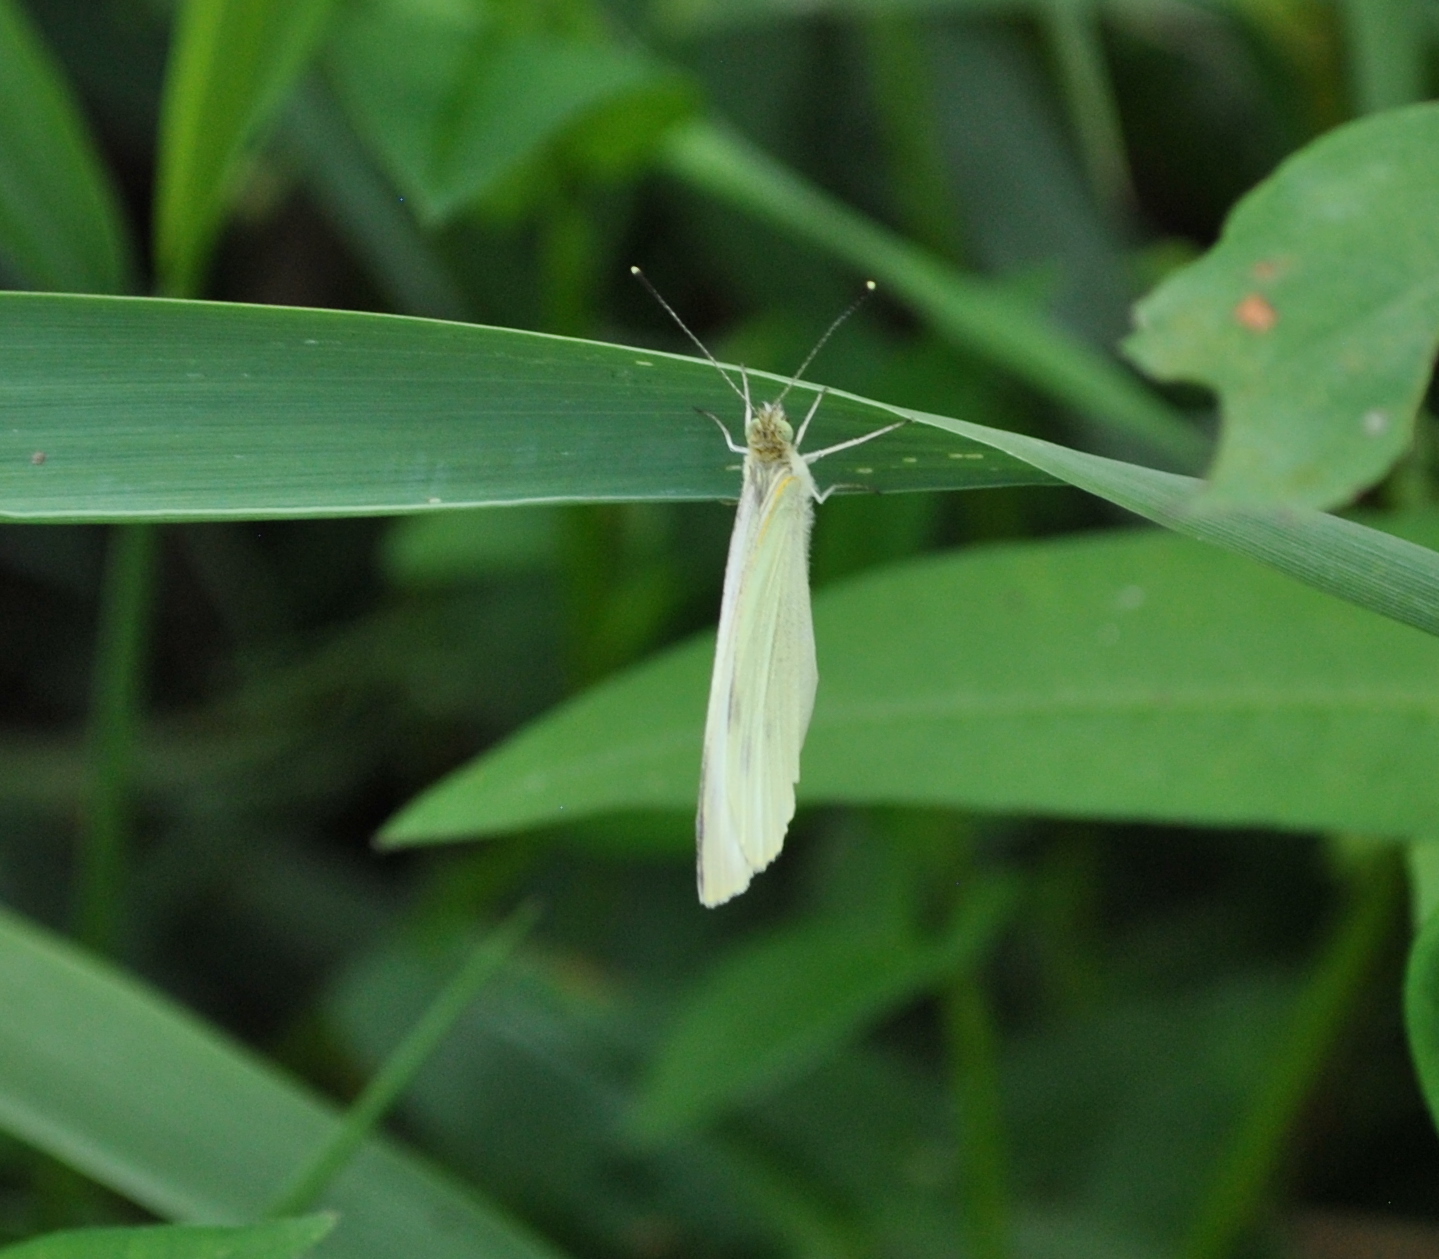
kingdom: Animalia
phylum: Arthropoda
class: Insecta
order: Lepidoptera
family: Pieridae
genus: Pieris
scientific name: Pieris rapae
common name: Small white
